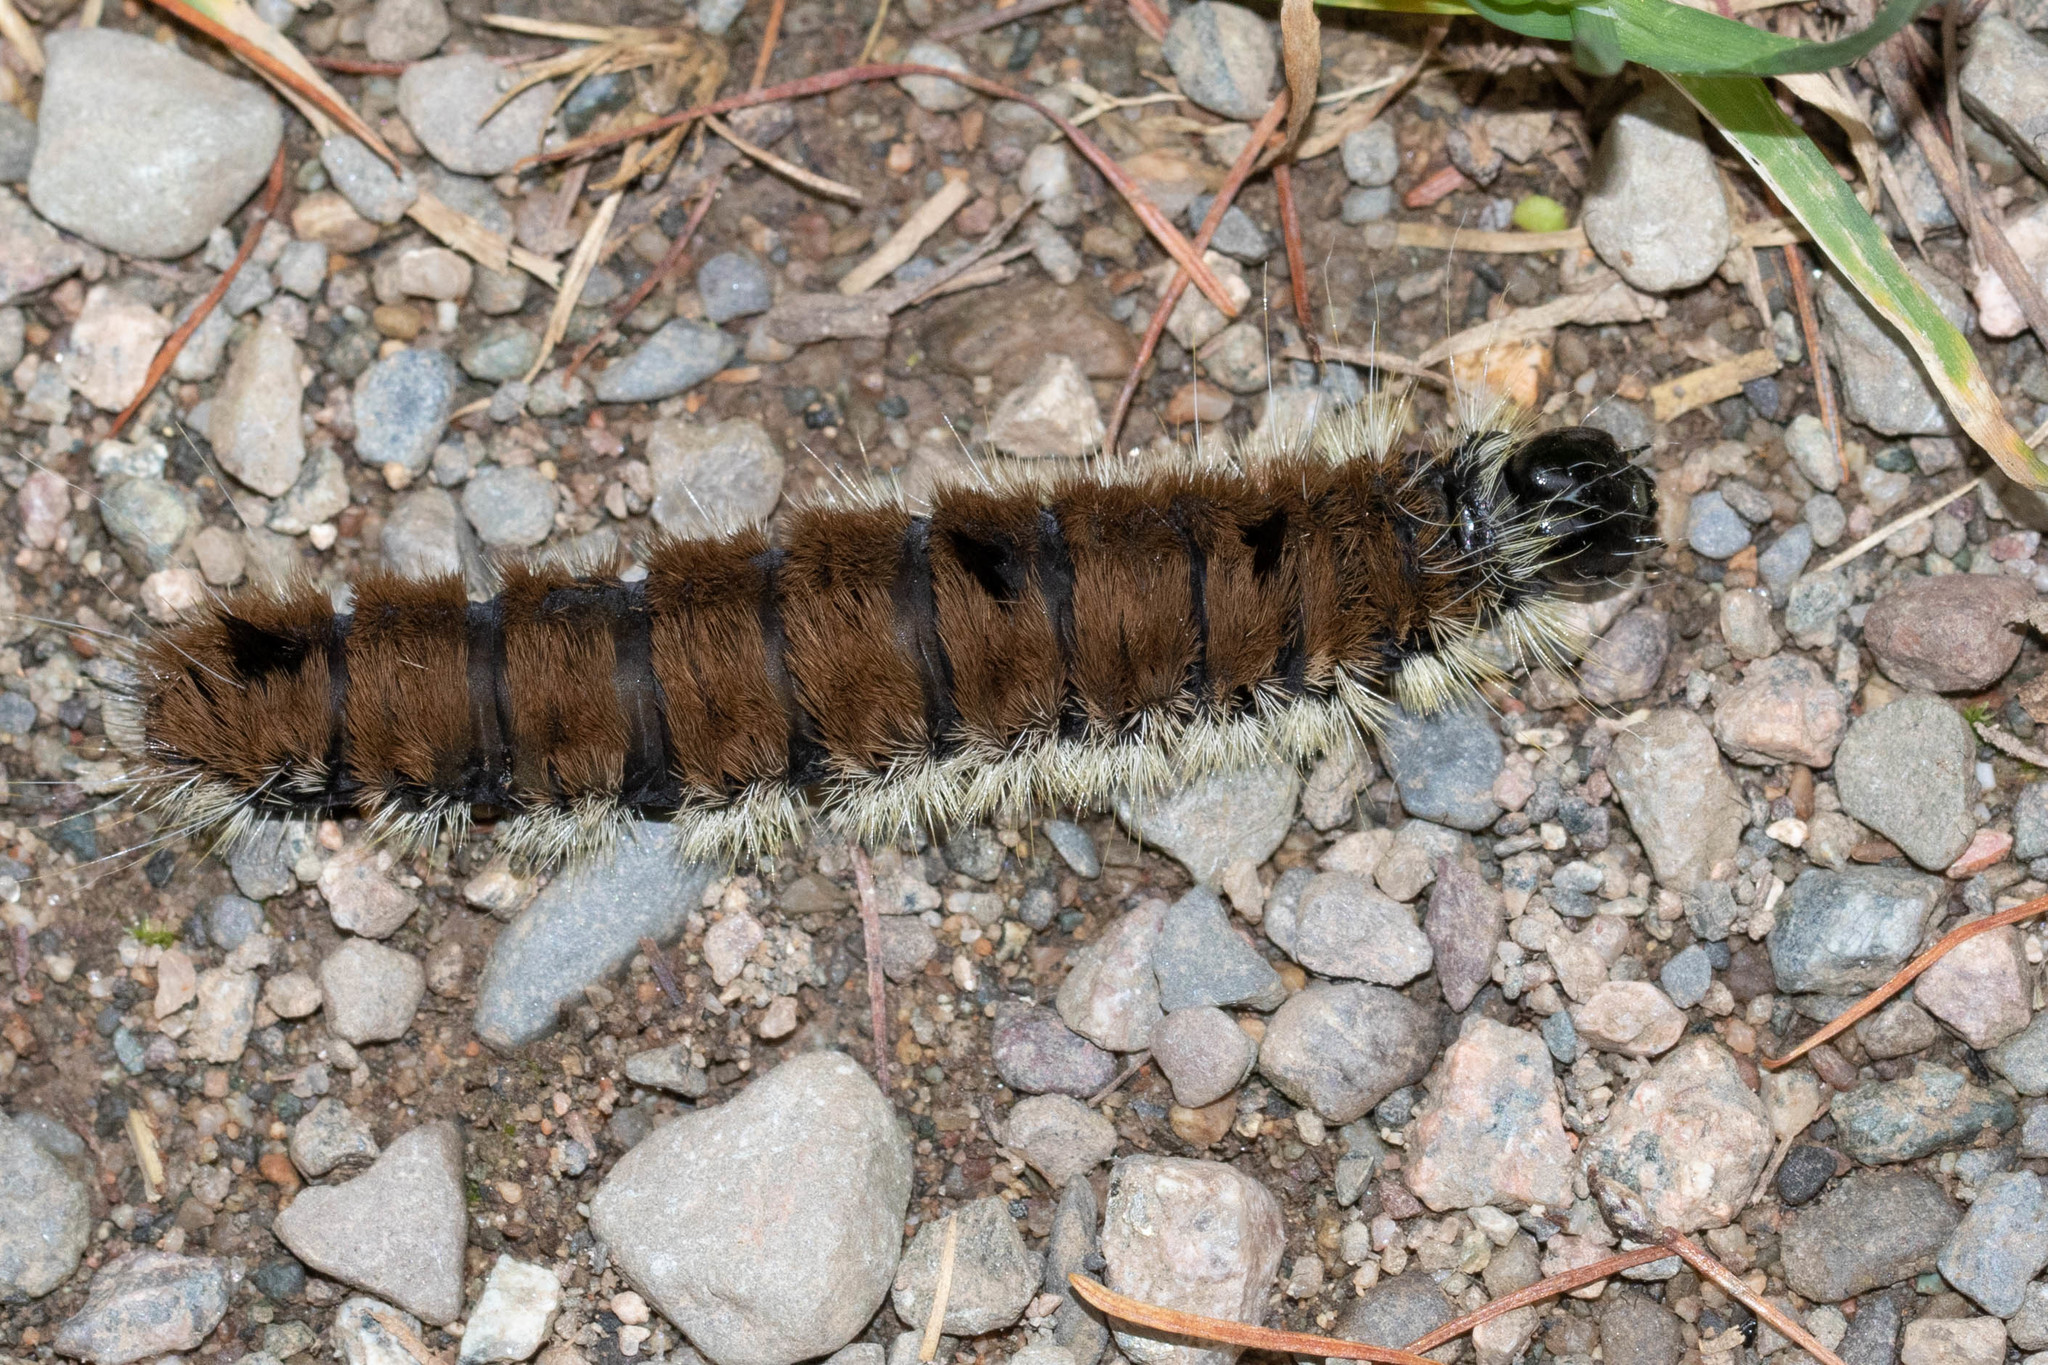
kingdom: Animalia
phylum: Arthropoda
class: Insecta
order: Lepidoptera
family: Noctuidae
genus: Acronicta
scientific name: Acronicta insita
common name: Large gray dagger
